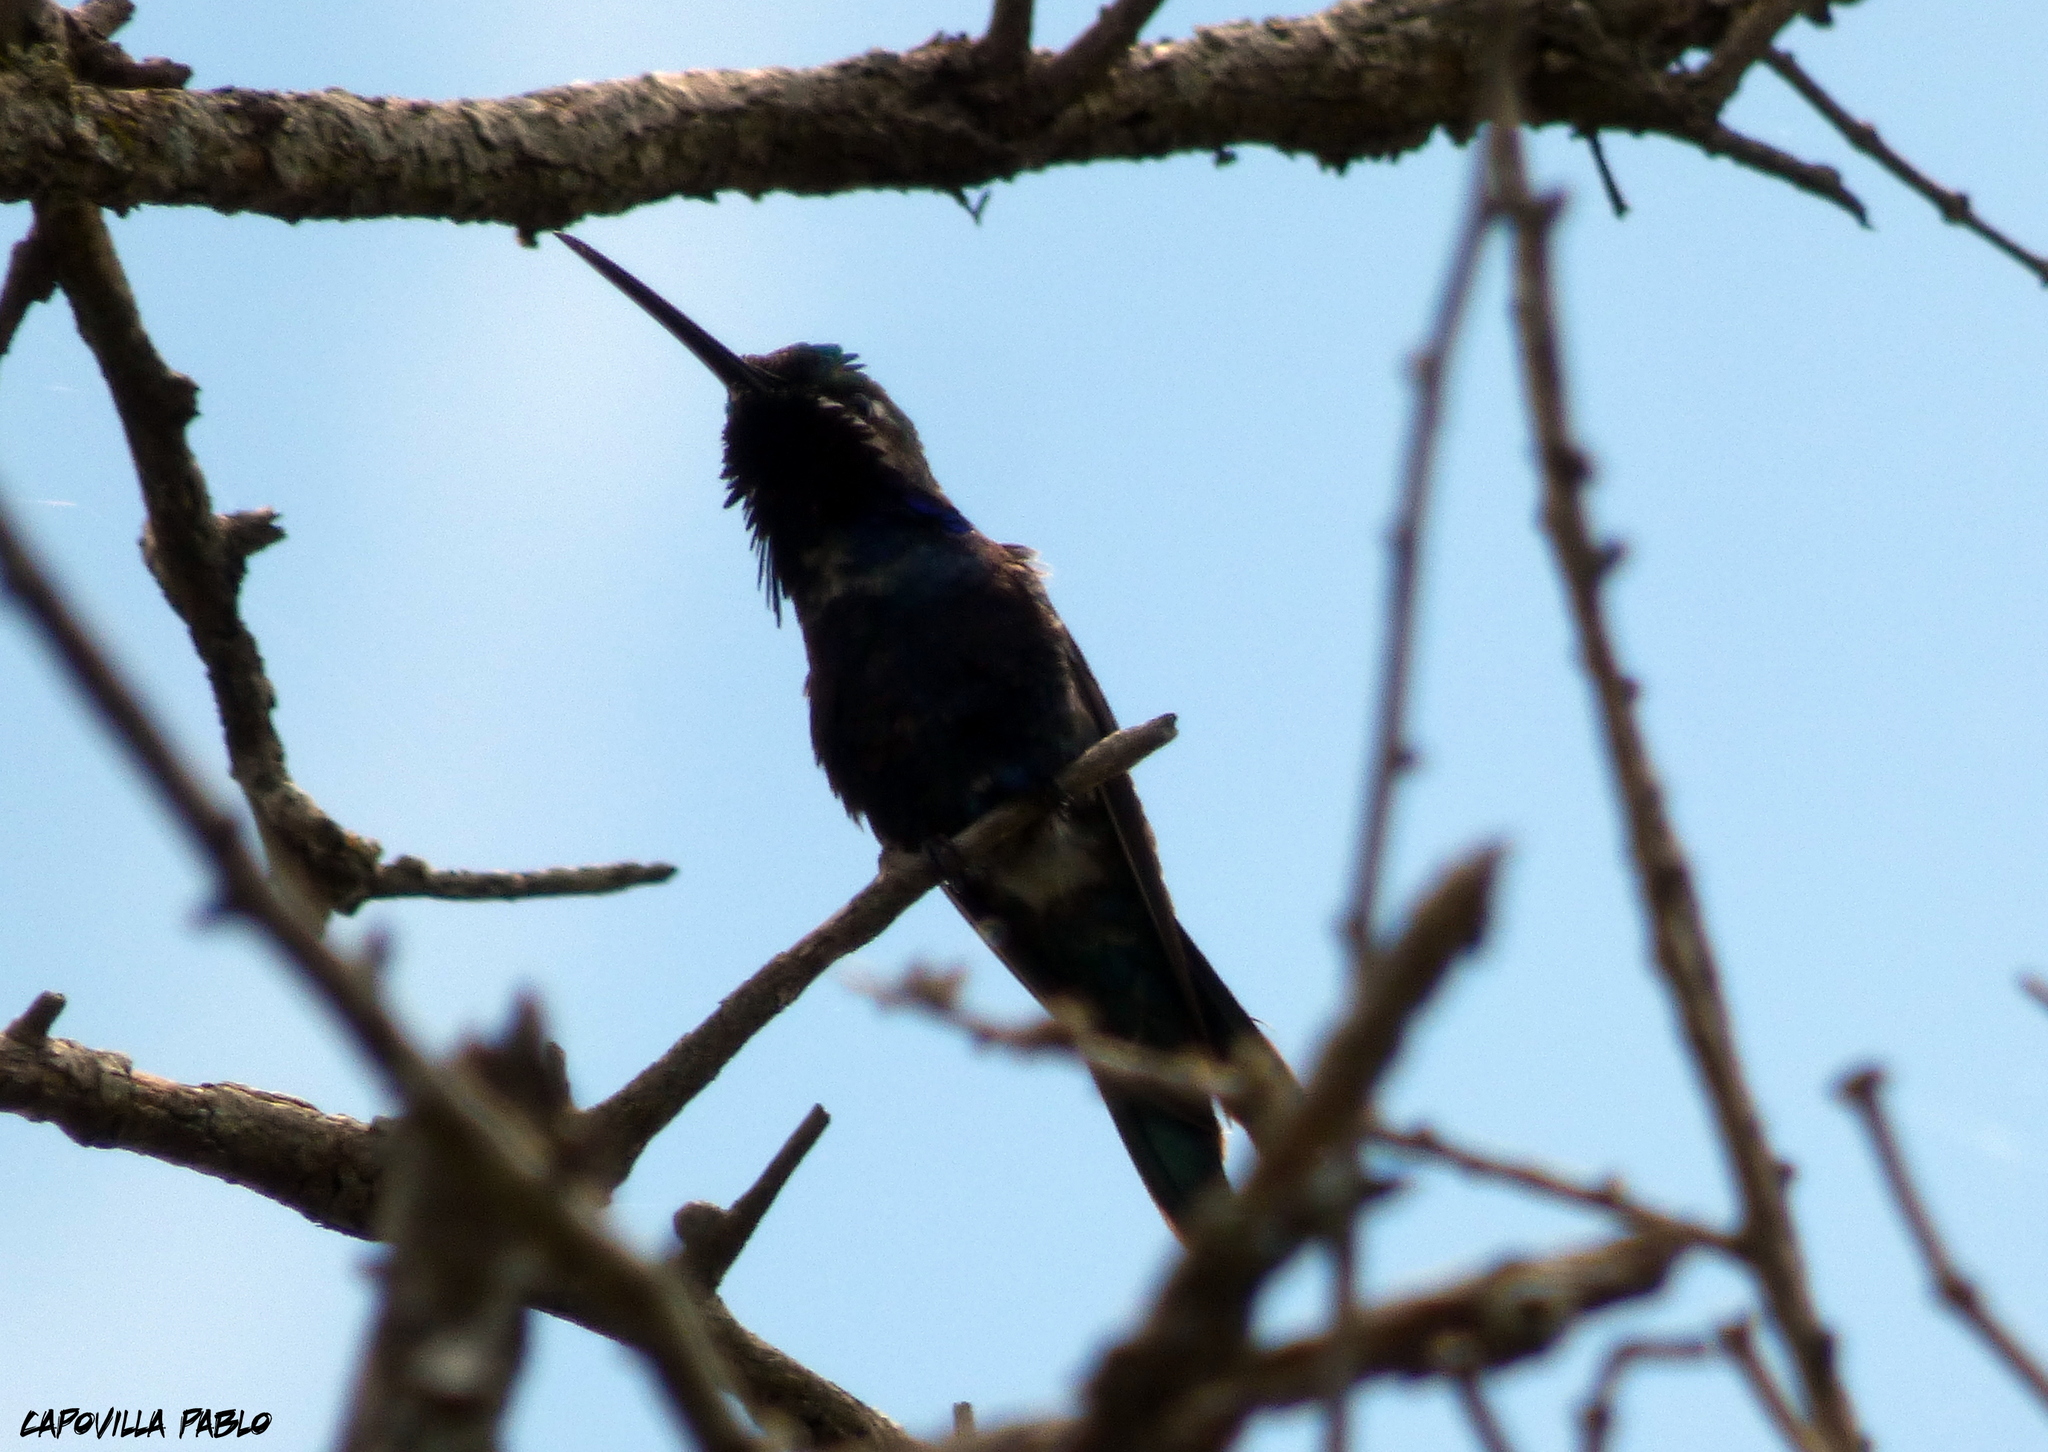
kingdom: Animalia
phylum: Chordata
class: Aves
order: Apodiformes
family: Trochilidae
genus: Heliomaster
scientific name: Heliomaster furcifer
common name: Blue-tufted starthroat
